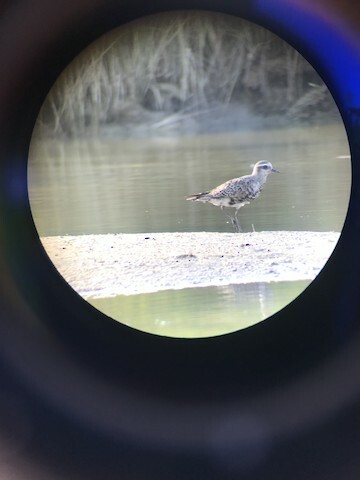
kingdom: Animalia
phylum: Chordata
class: Aves
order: Charadriiformes
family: Charadriidae
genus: Pluvialis
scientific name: Pluvialis dominica
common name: American golden plover
